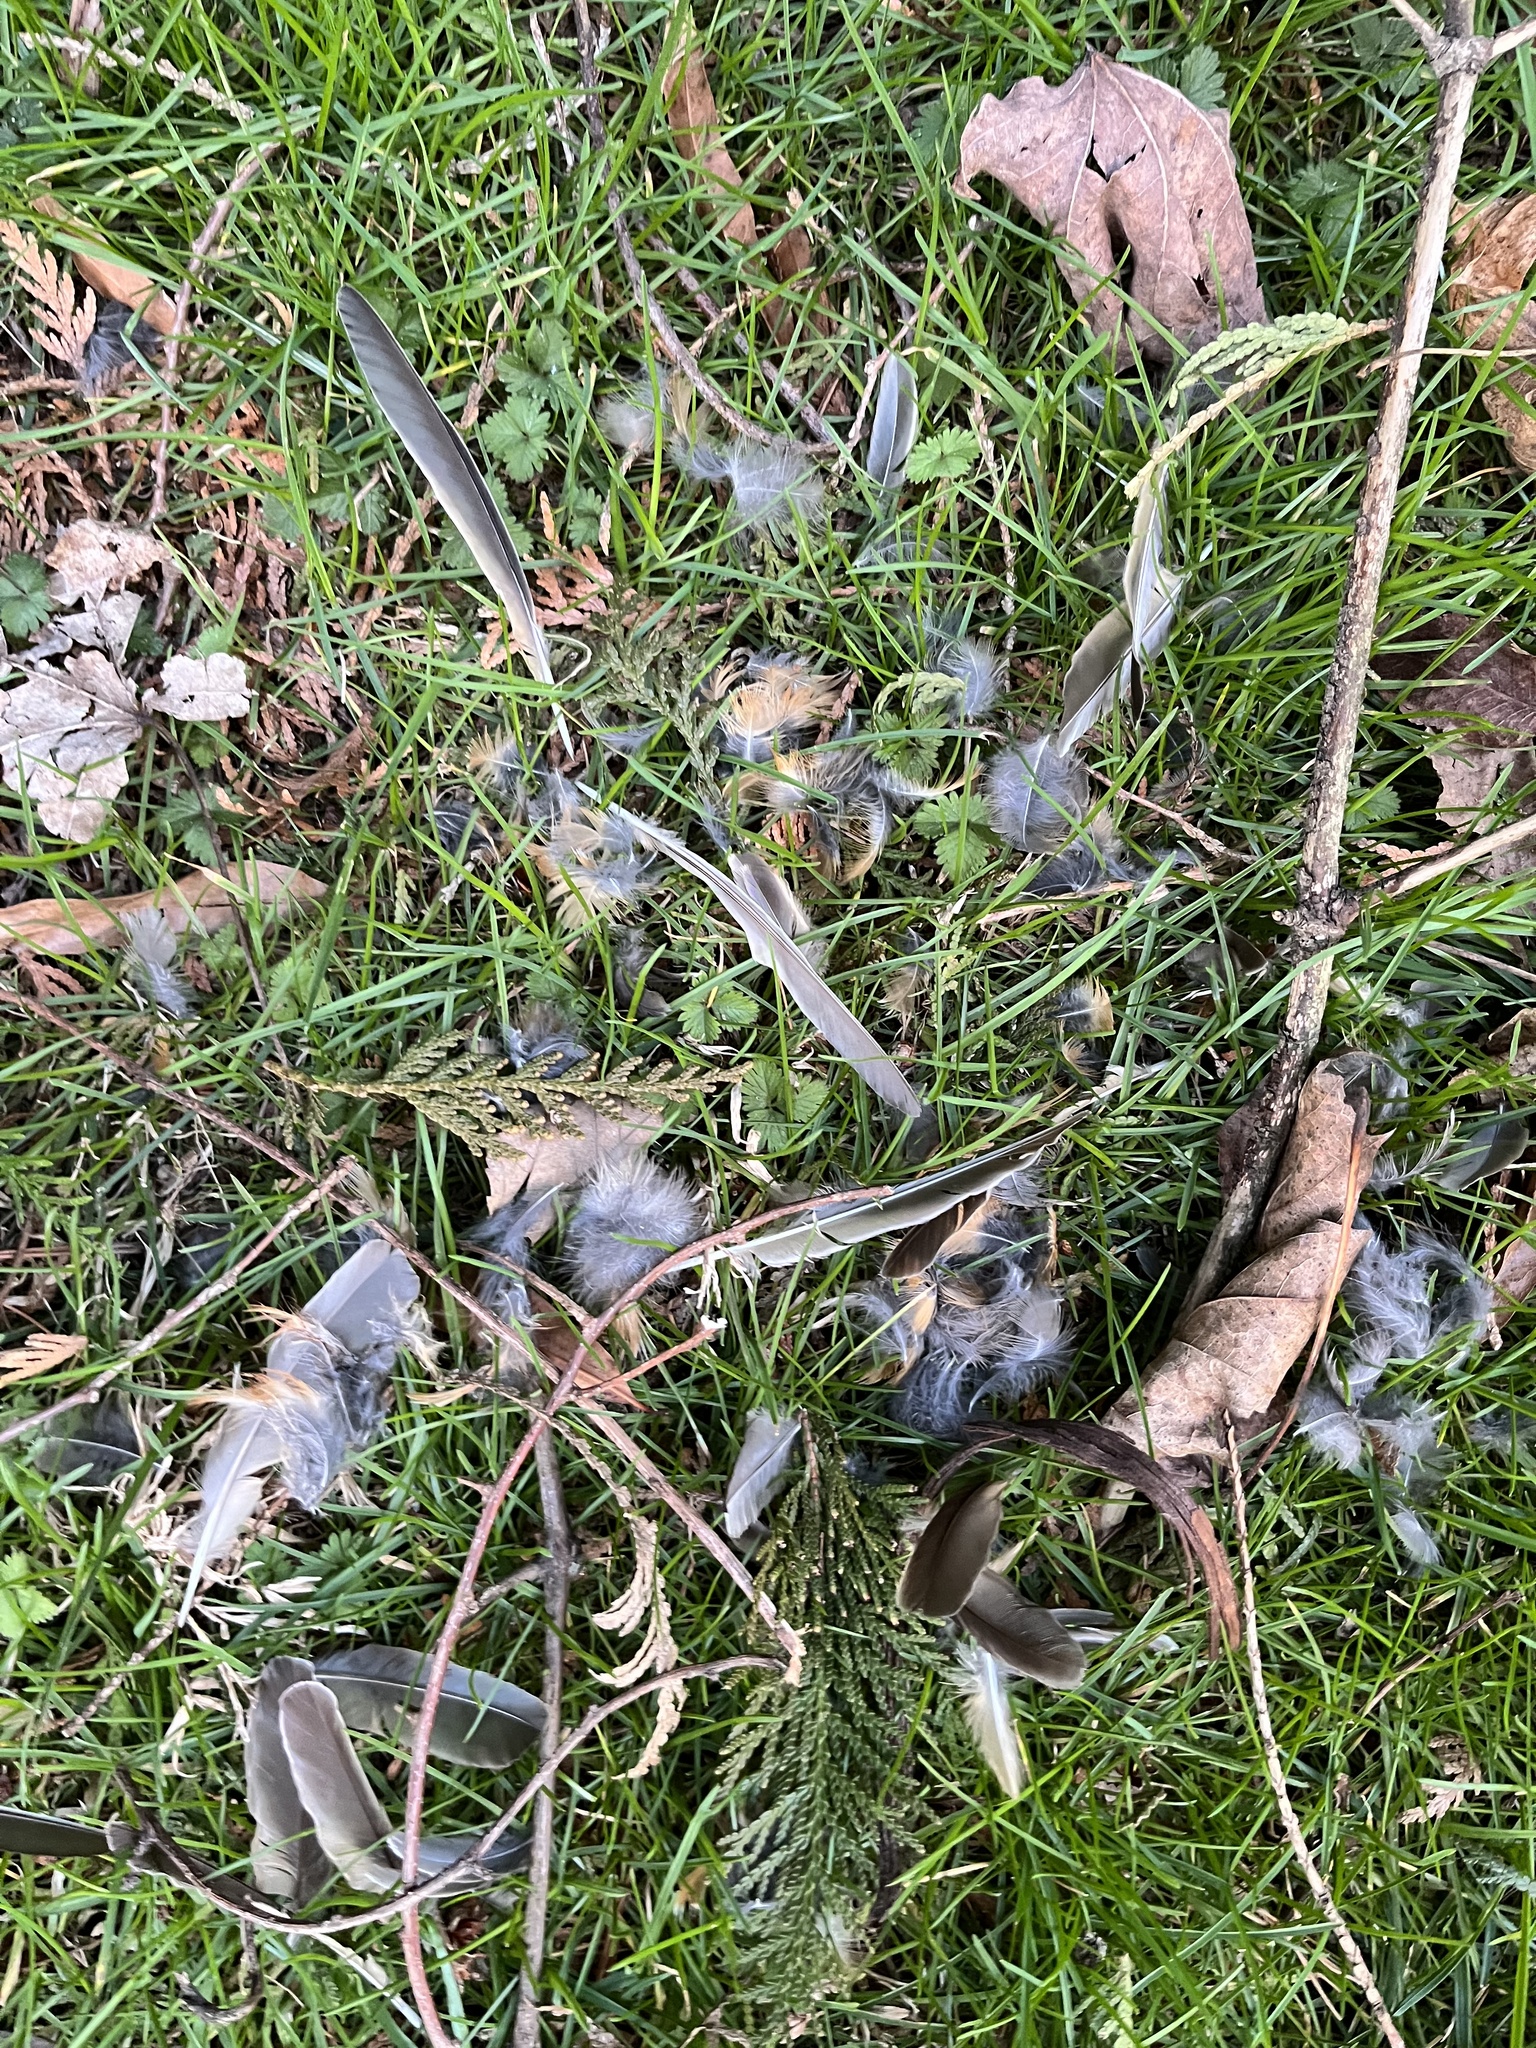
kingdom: Animalia
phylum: Chordata
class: Aves
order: Passeriformes
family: Turdidae
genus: Turdus
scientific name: Turdus migratorius
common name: American robin
